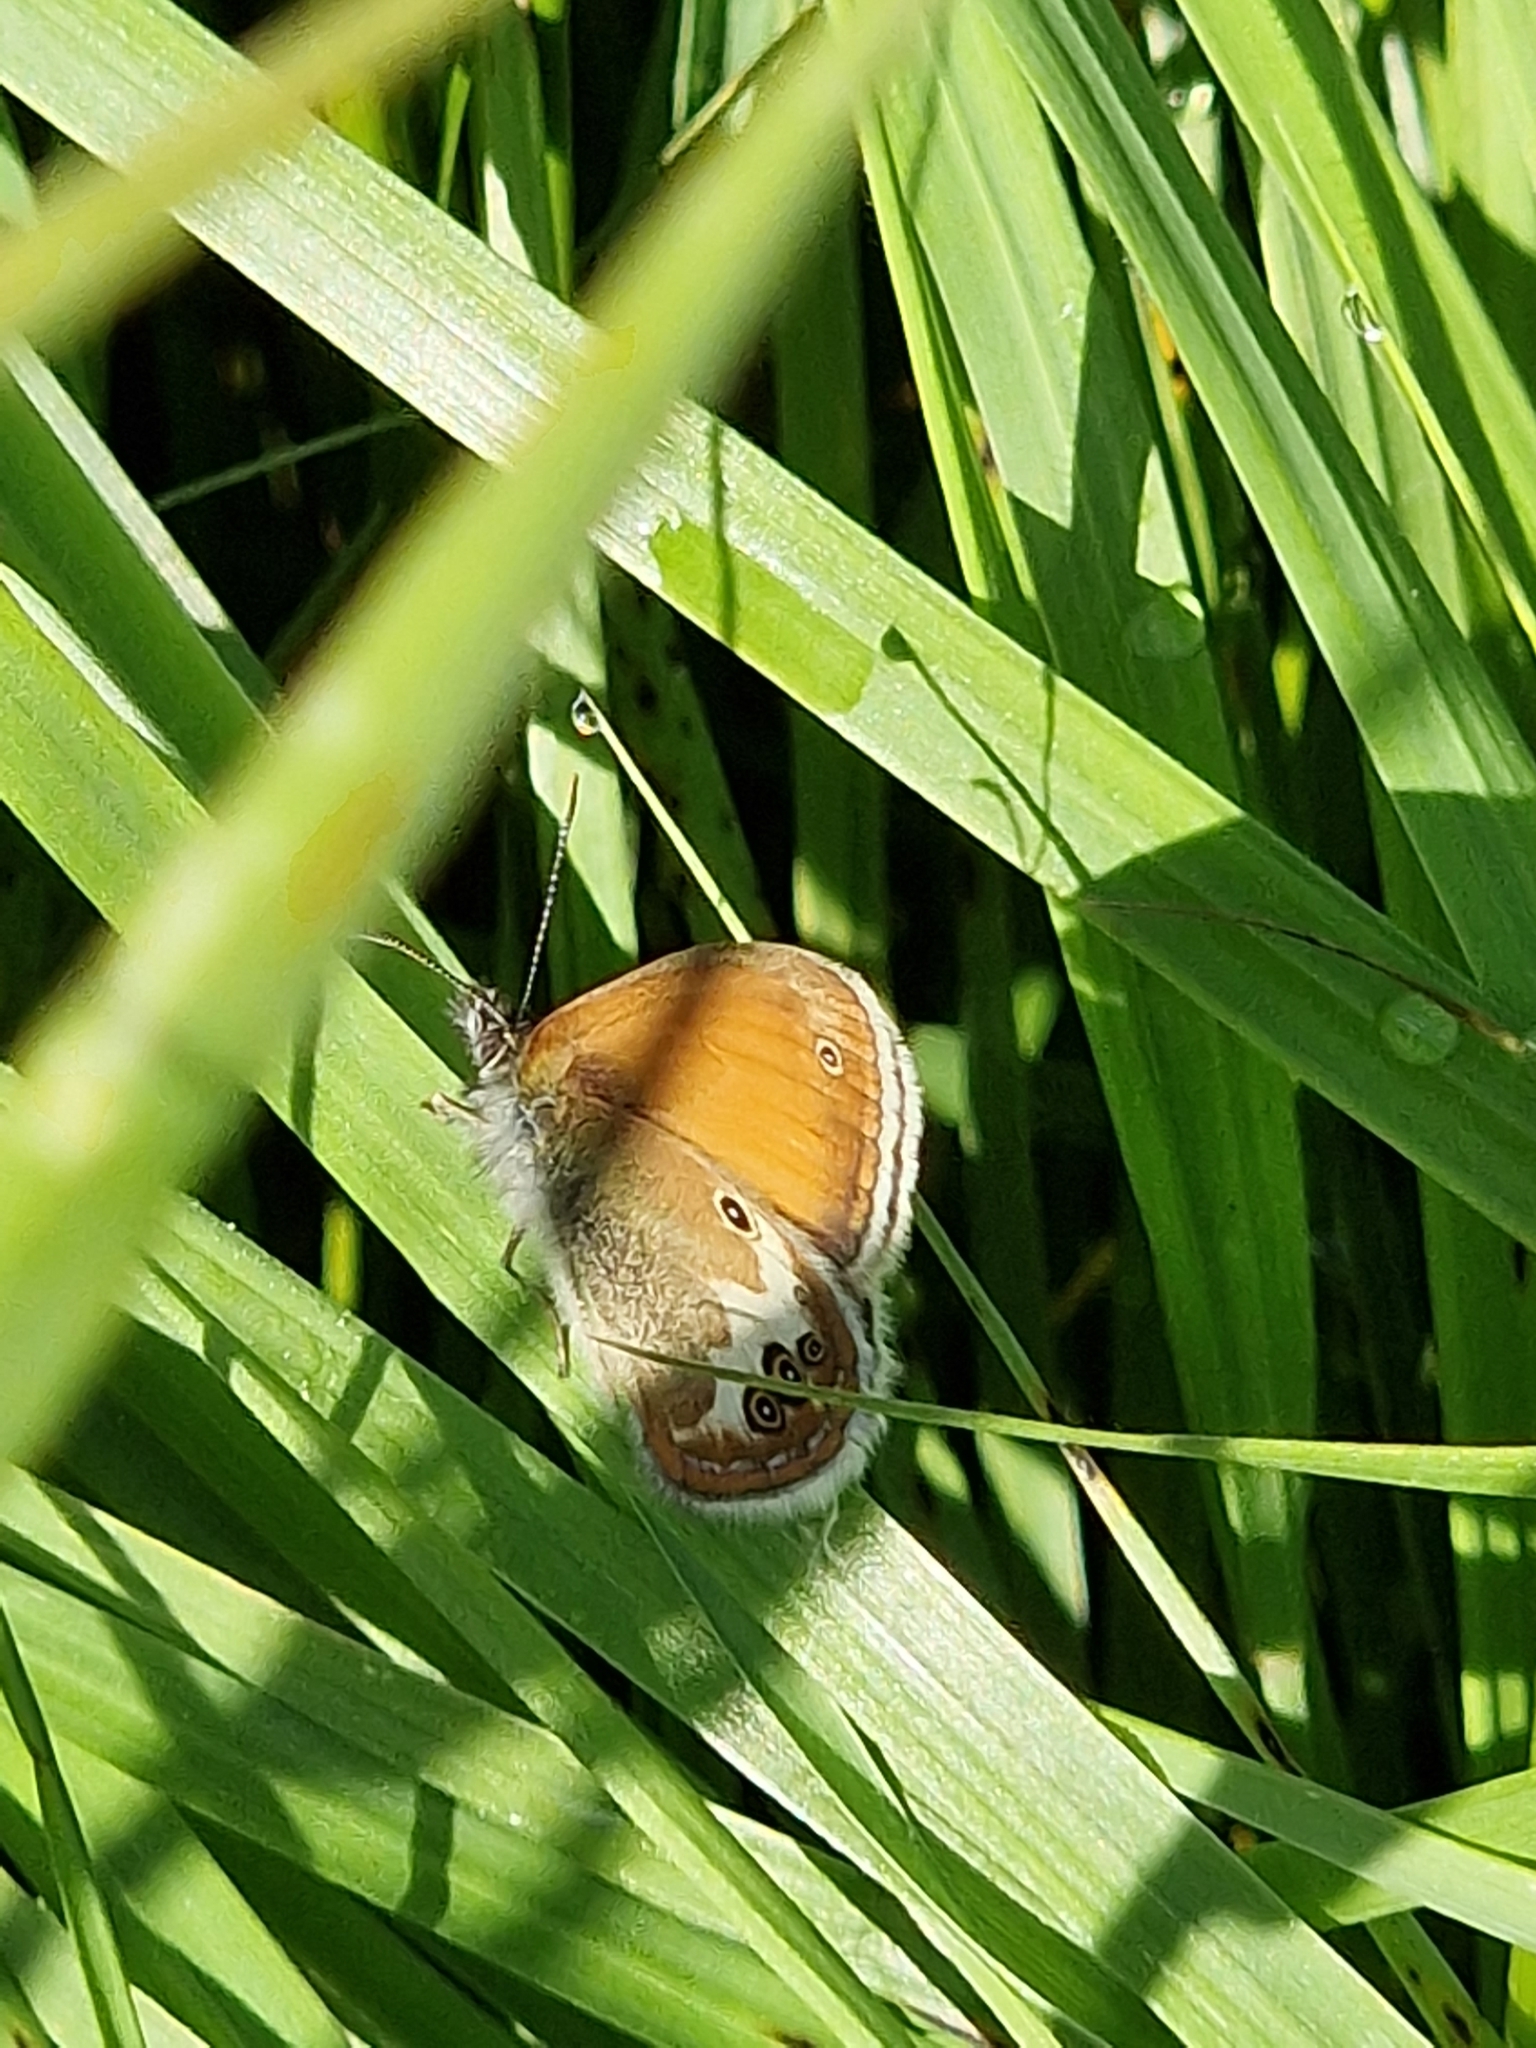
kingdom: Animalia
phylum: Arthropoda
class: Insecta
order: Lepidoptera
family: Nymphalidae
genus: Coenonympha
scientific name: Coenonympha arcania
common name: Pearly heath
